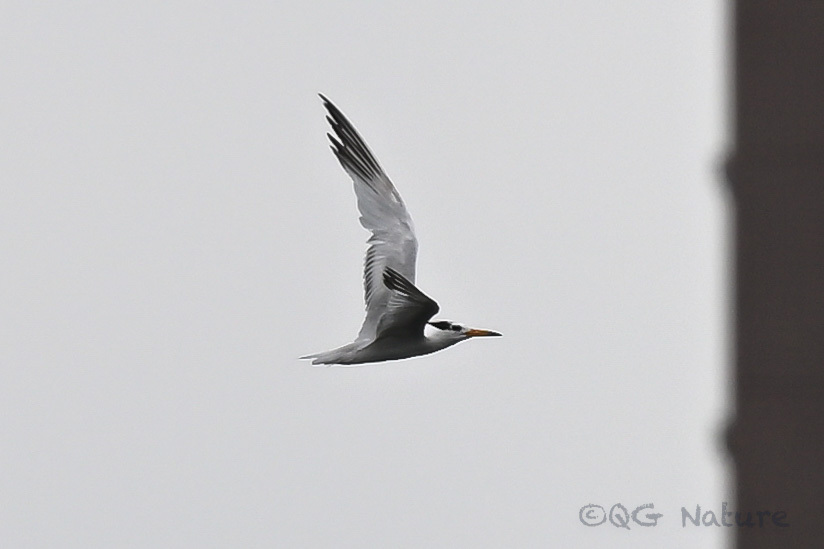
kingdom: Animalia
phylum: Chordata
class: Aves
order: Charadriiformes
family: Laridae
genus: Thalasseus
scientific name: Thalasseus bernsteini
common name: Chinese crested tern
